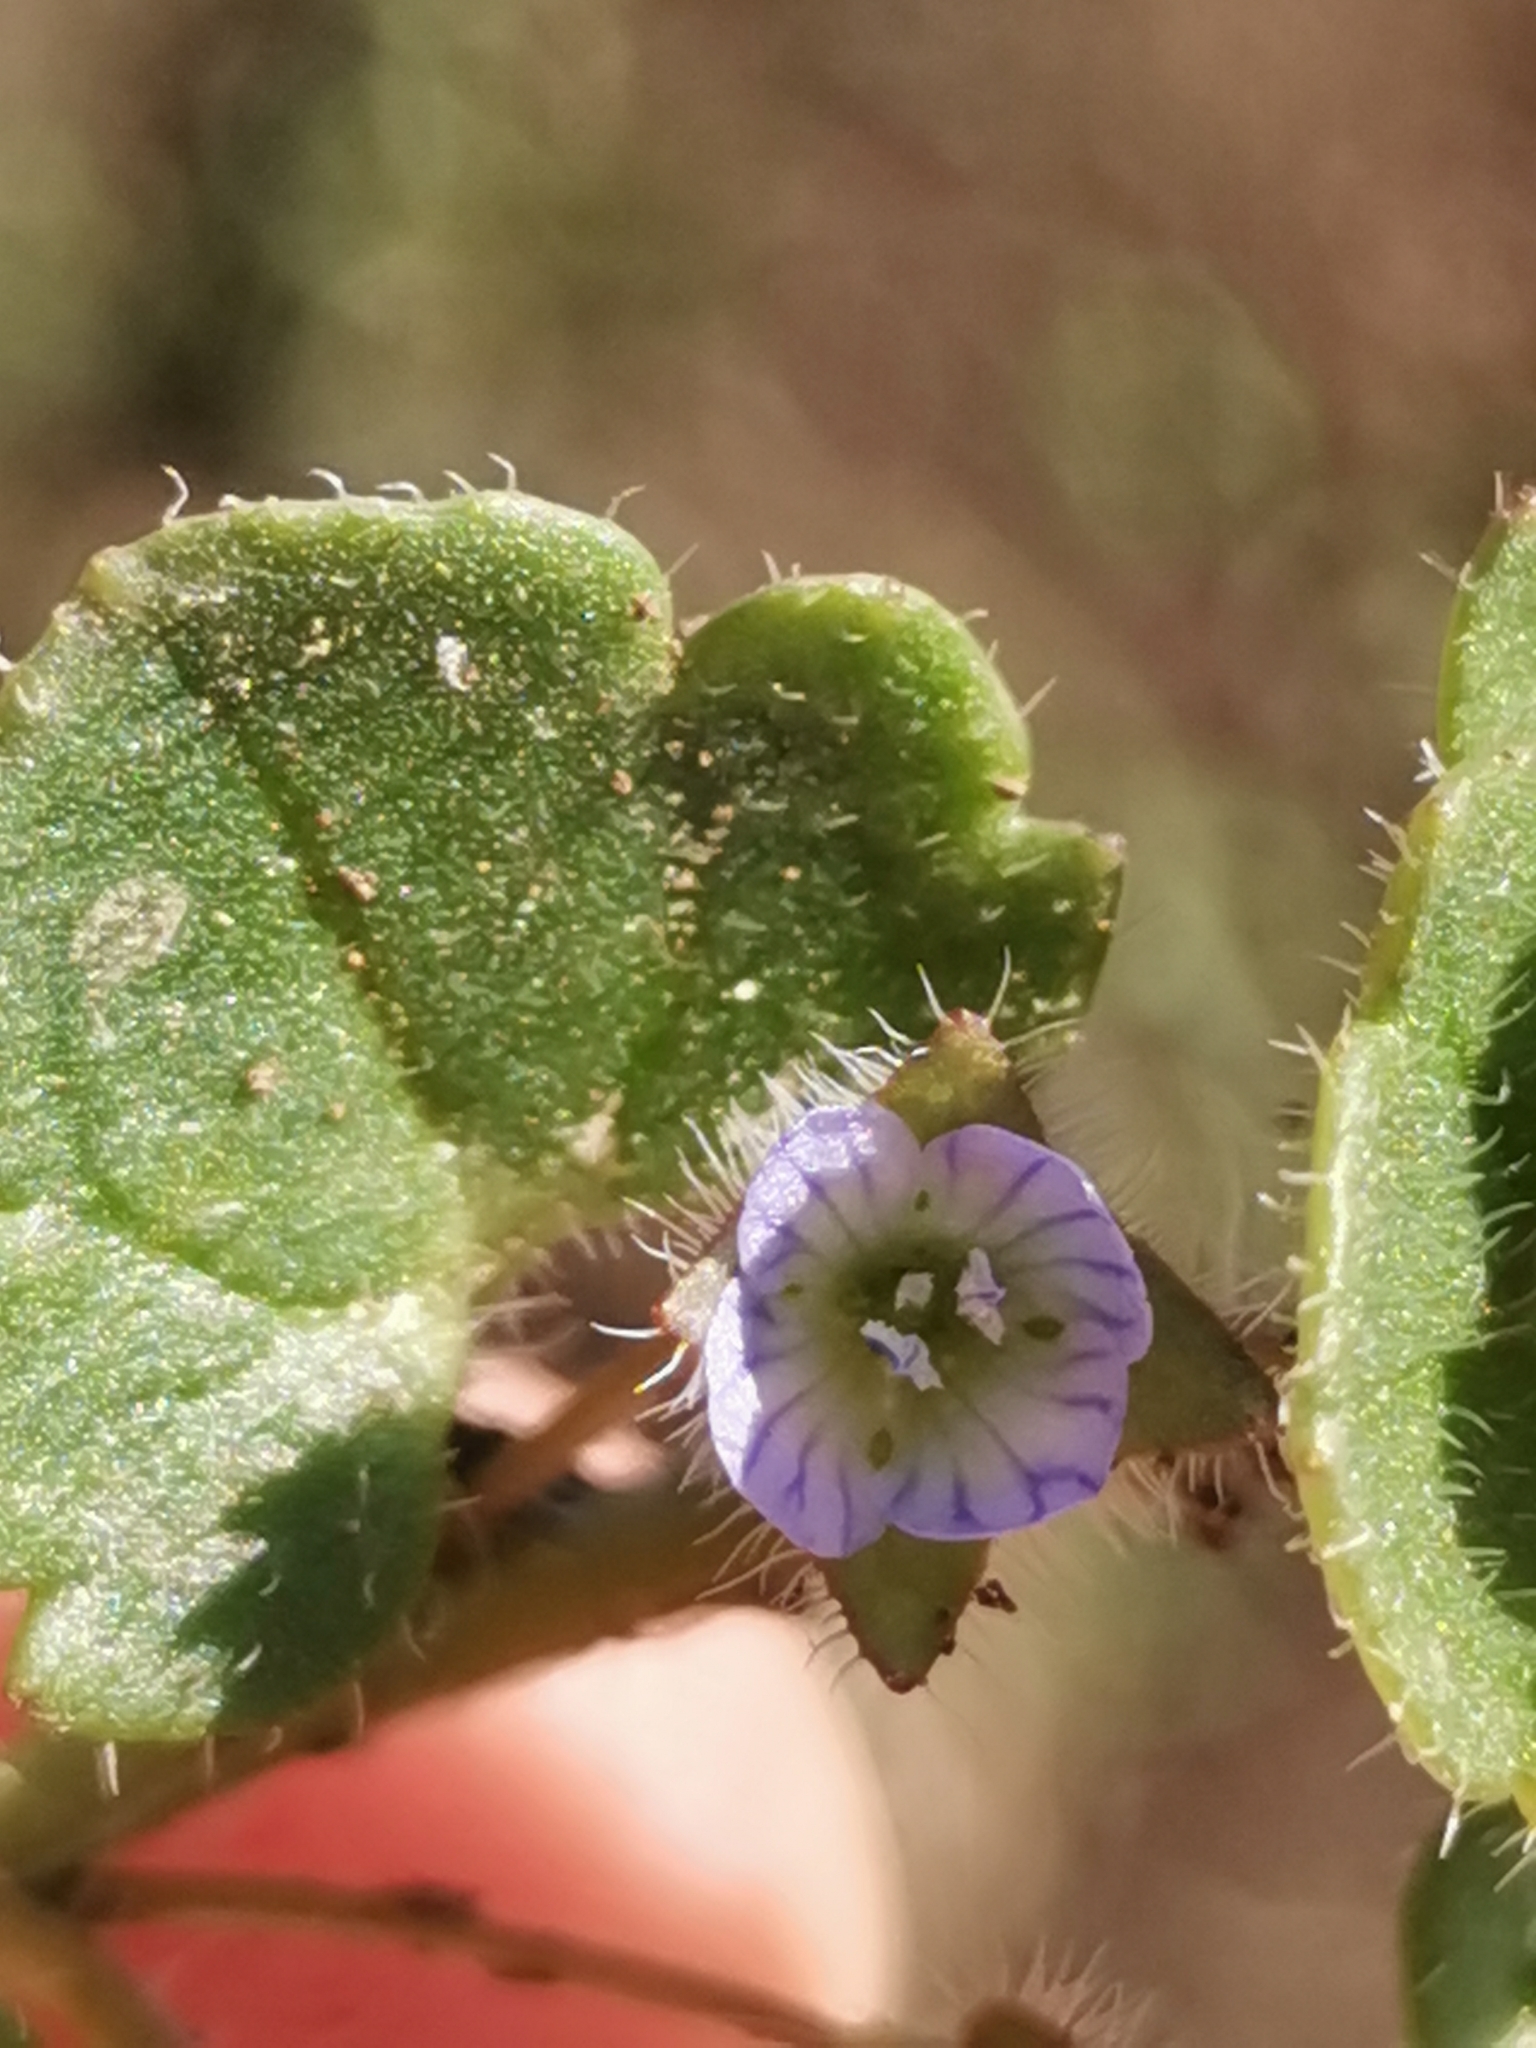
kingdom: Plantae
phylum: Tracheophyta
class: Magnoliopsida
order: Lamiales
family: Plantaginaceae
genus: Veronica
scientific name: Veronica hederifolia
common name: Ivy-leaved speedwell
